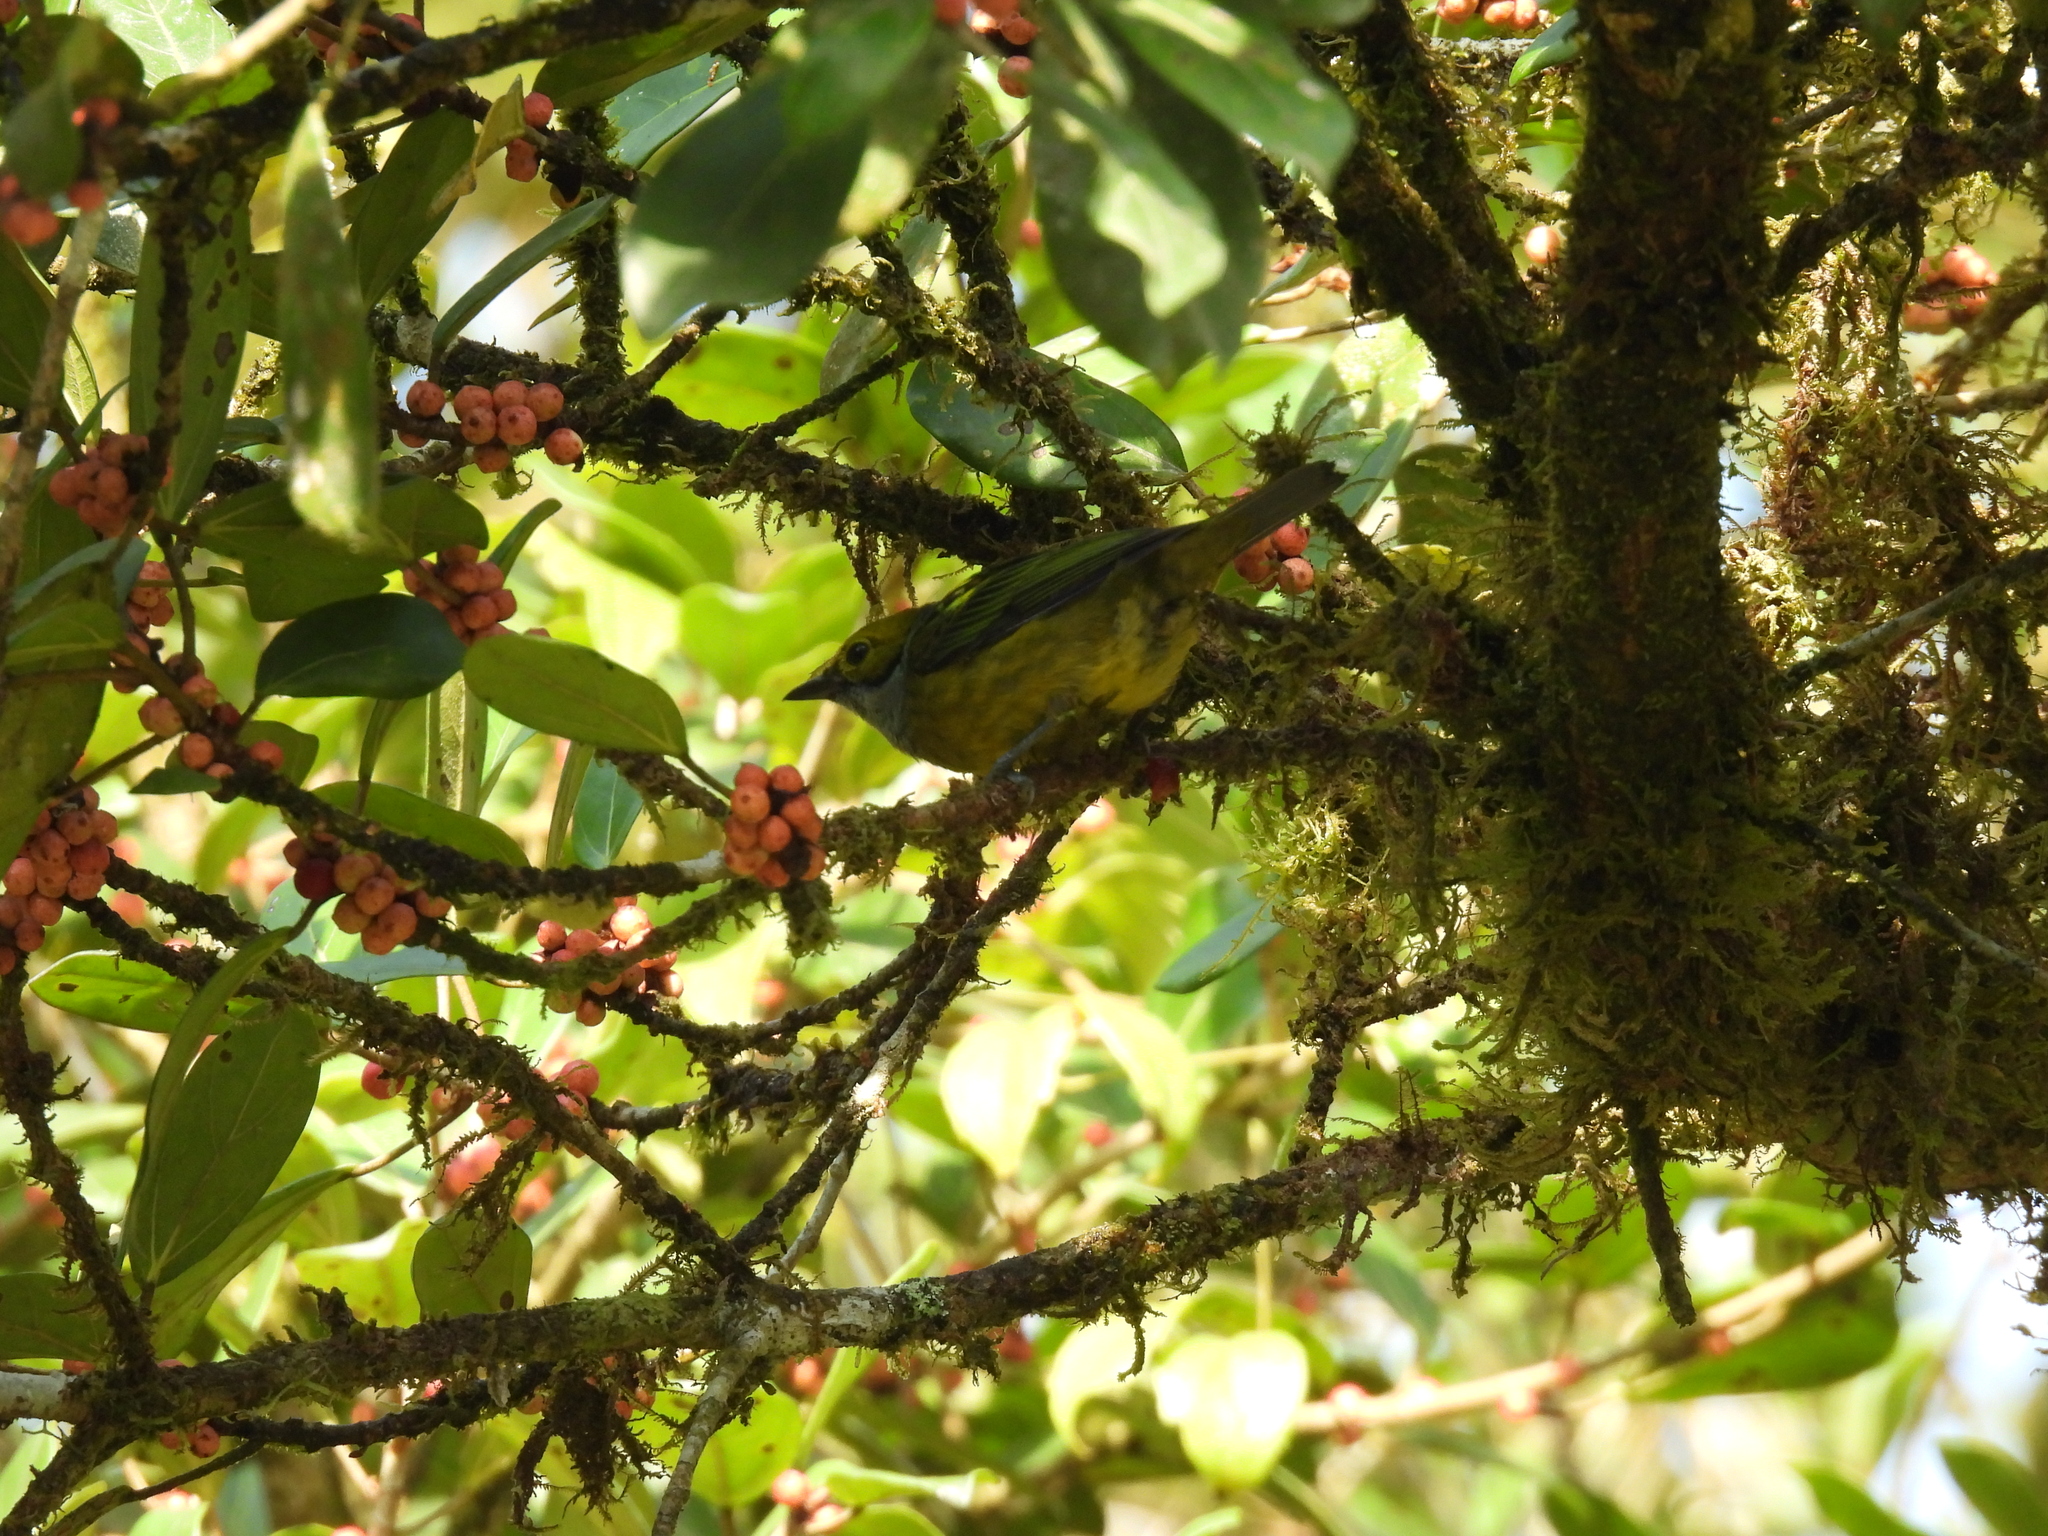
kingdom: Animalia
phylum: Chordata
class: Aves
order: Passeriformes
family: Thraupidae
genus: Tangara
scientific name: Tangara icterocephala
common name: Silver-throated tanager
